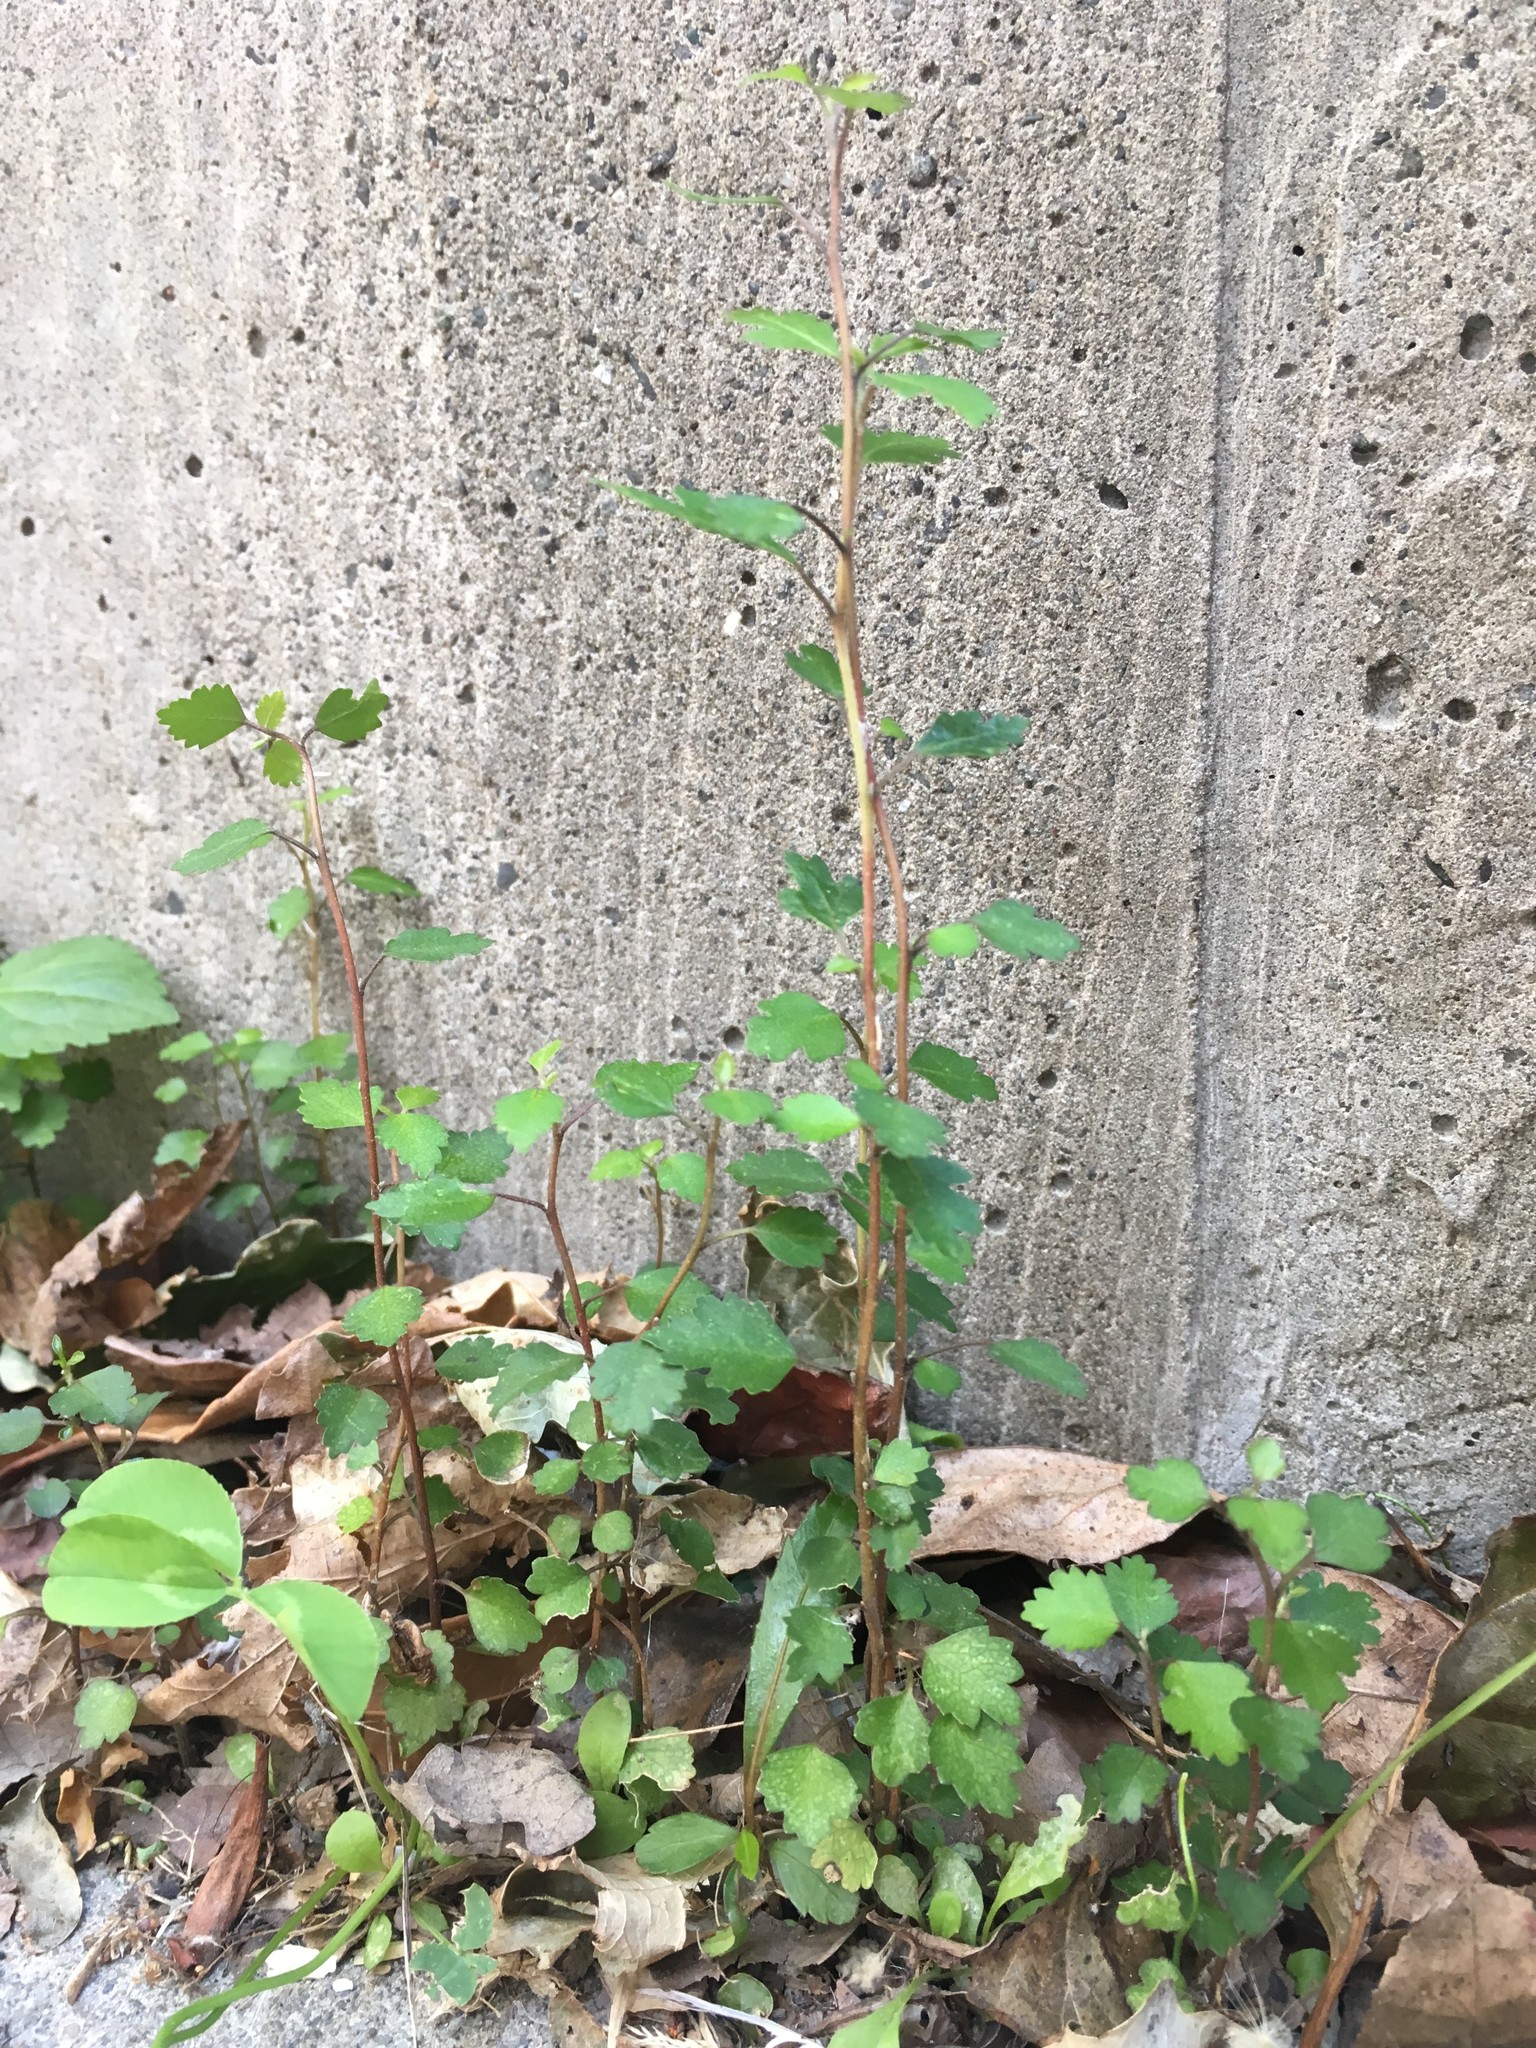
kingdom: Plantae
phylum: Tracheophyta
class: Magnoliopsida
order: Malvales
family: Malvaceae
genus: Plagianthus
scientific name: Plagianthus regius
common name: Manatu
